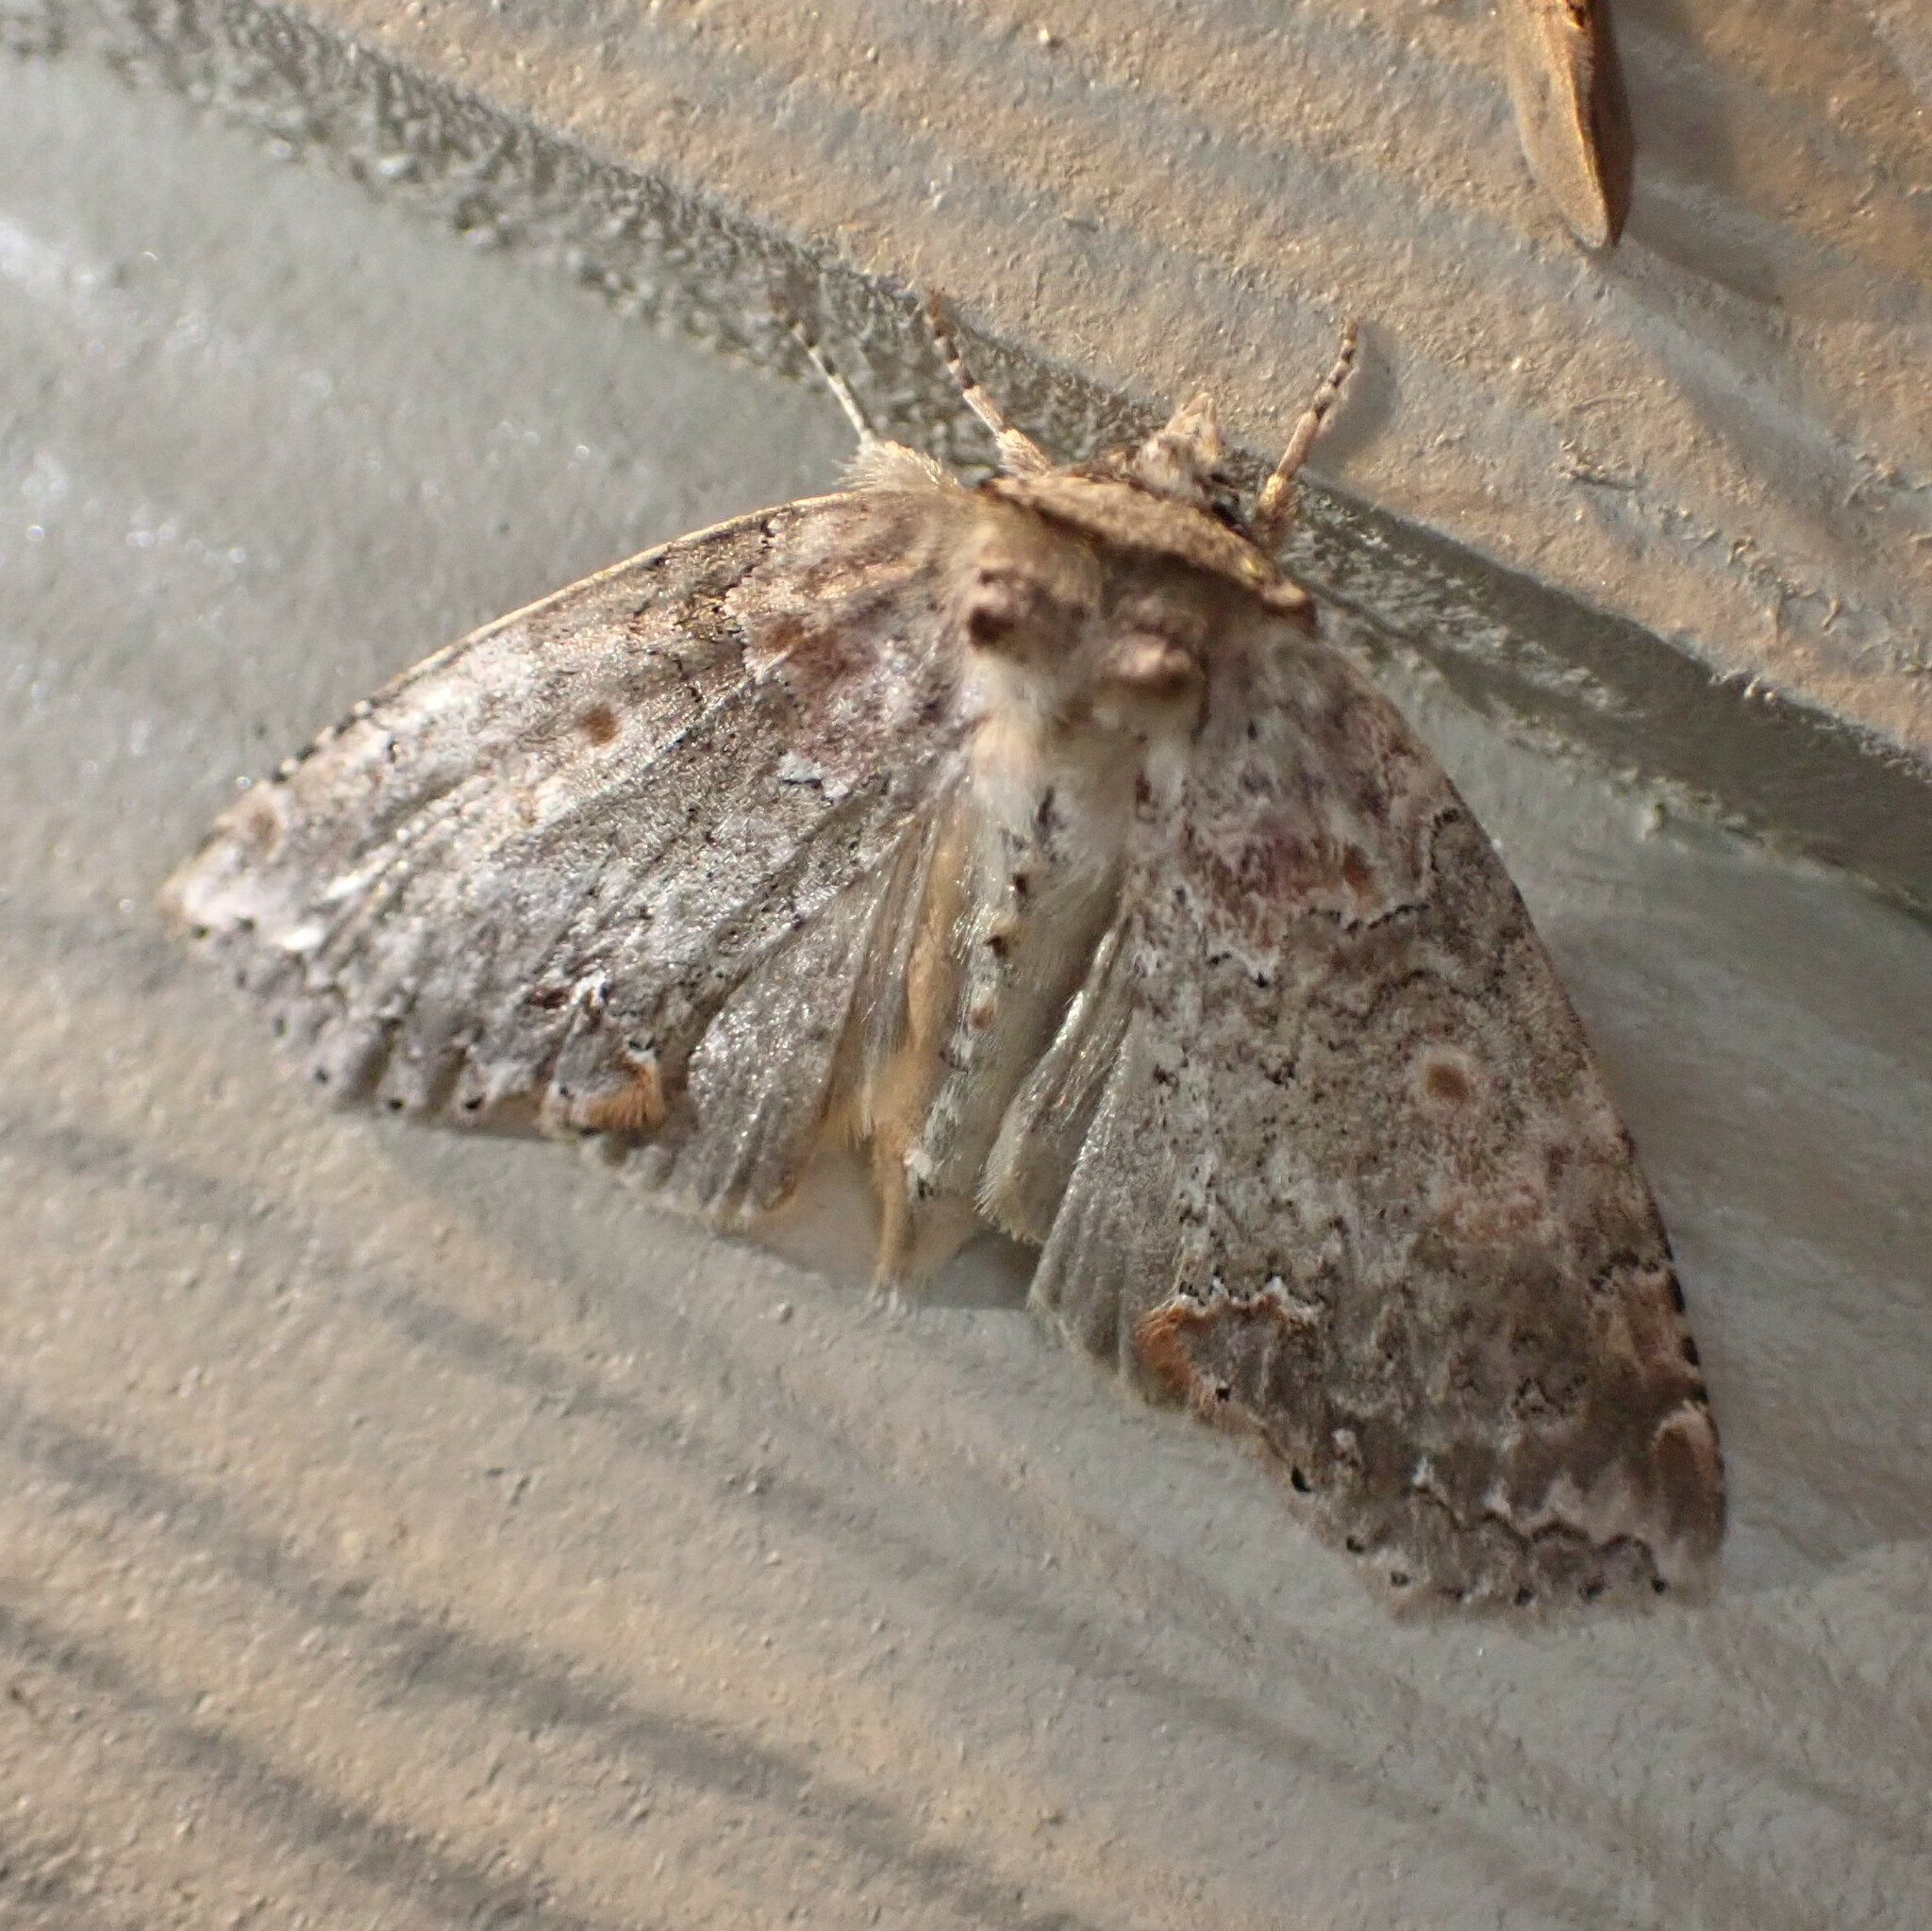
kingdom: Animalia
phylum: Arthropoda
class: Insecta
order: Lepidoptera
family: Drepanidae
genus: Pseudothyatira
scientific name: Pseudothyatira cymatophoroides
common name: Tufted thyatirid moth
